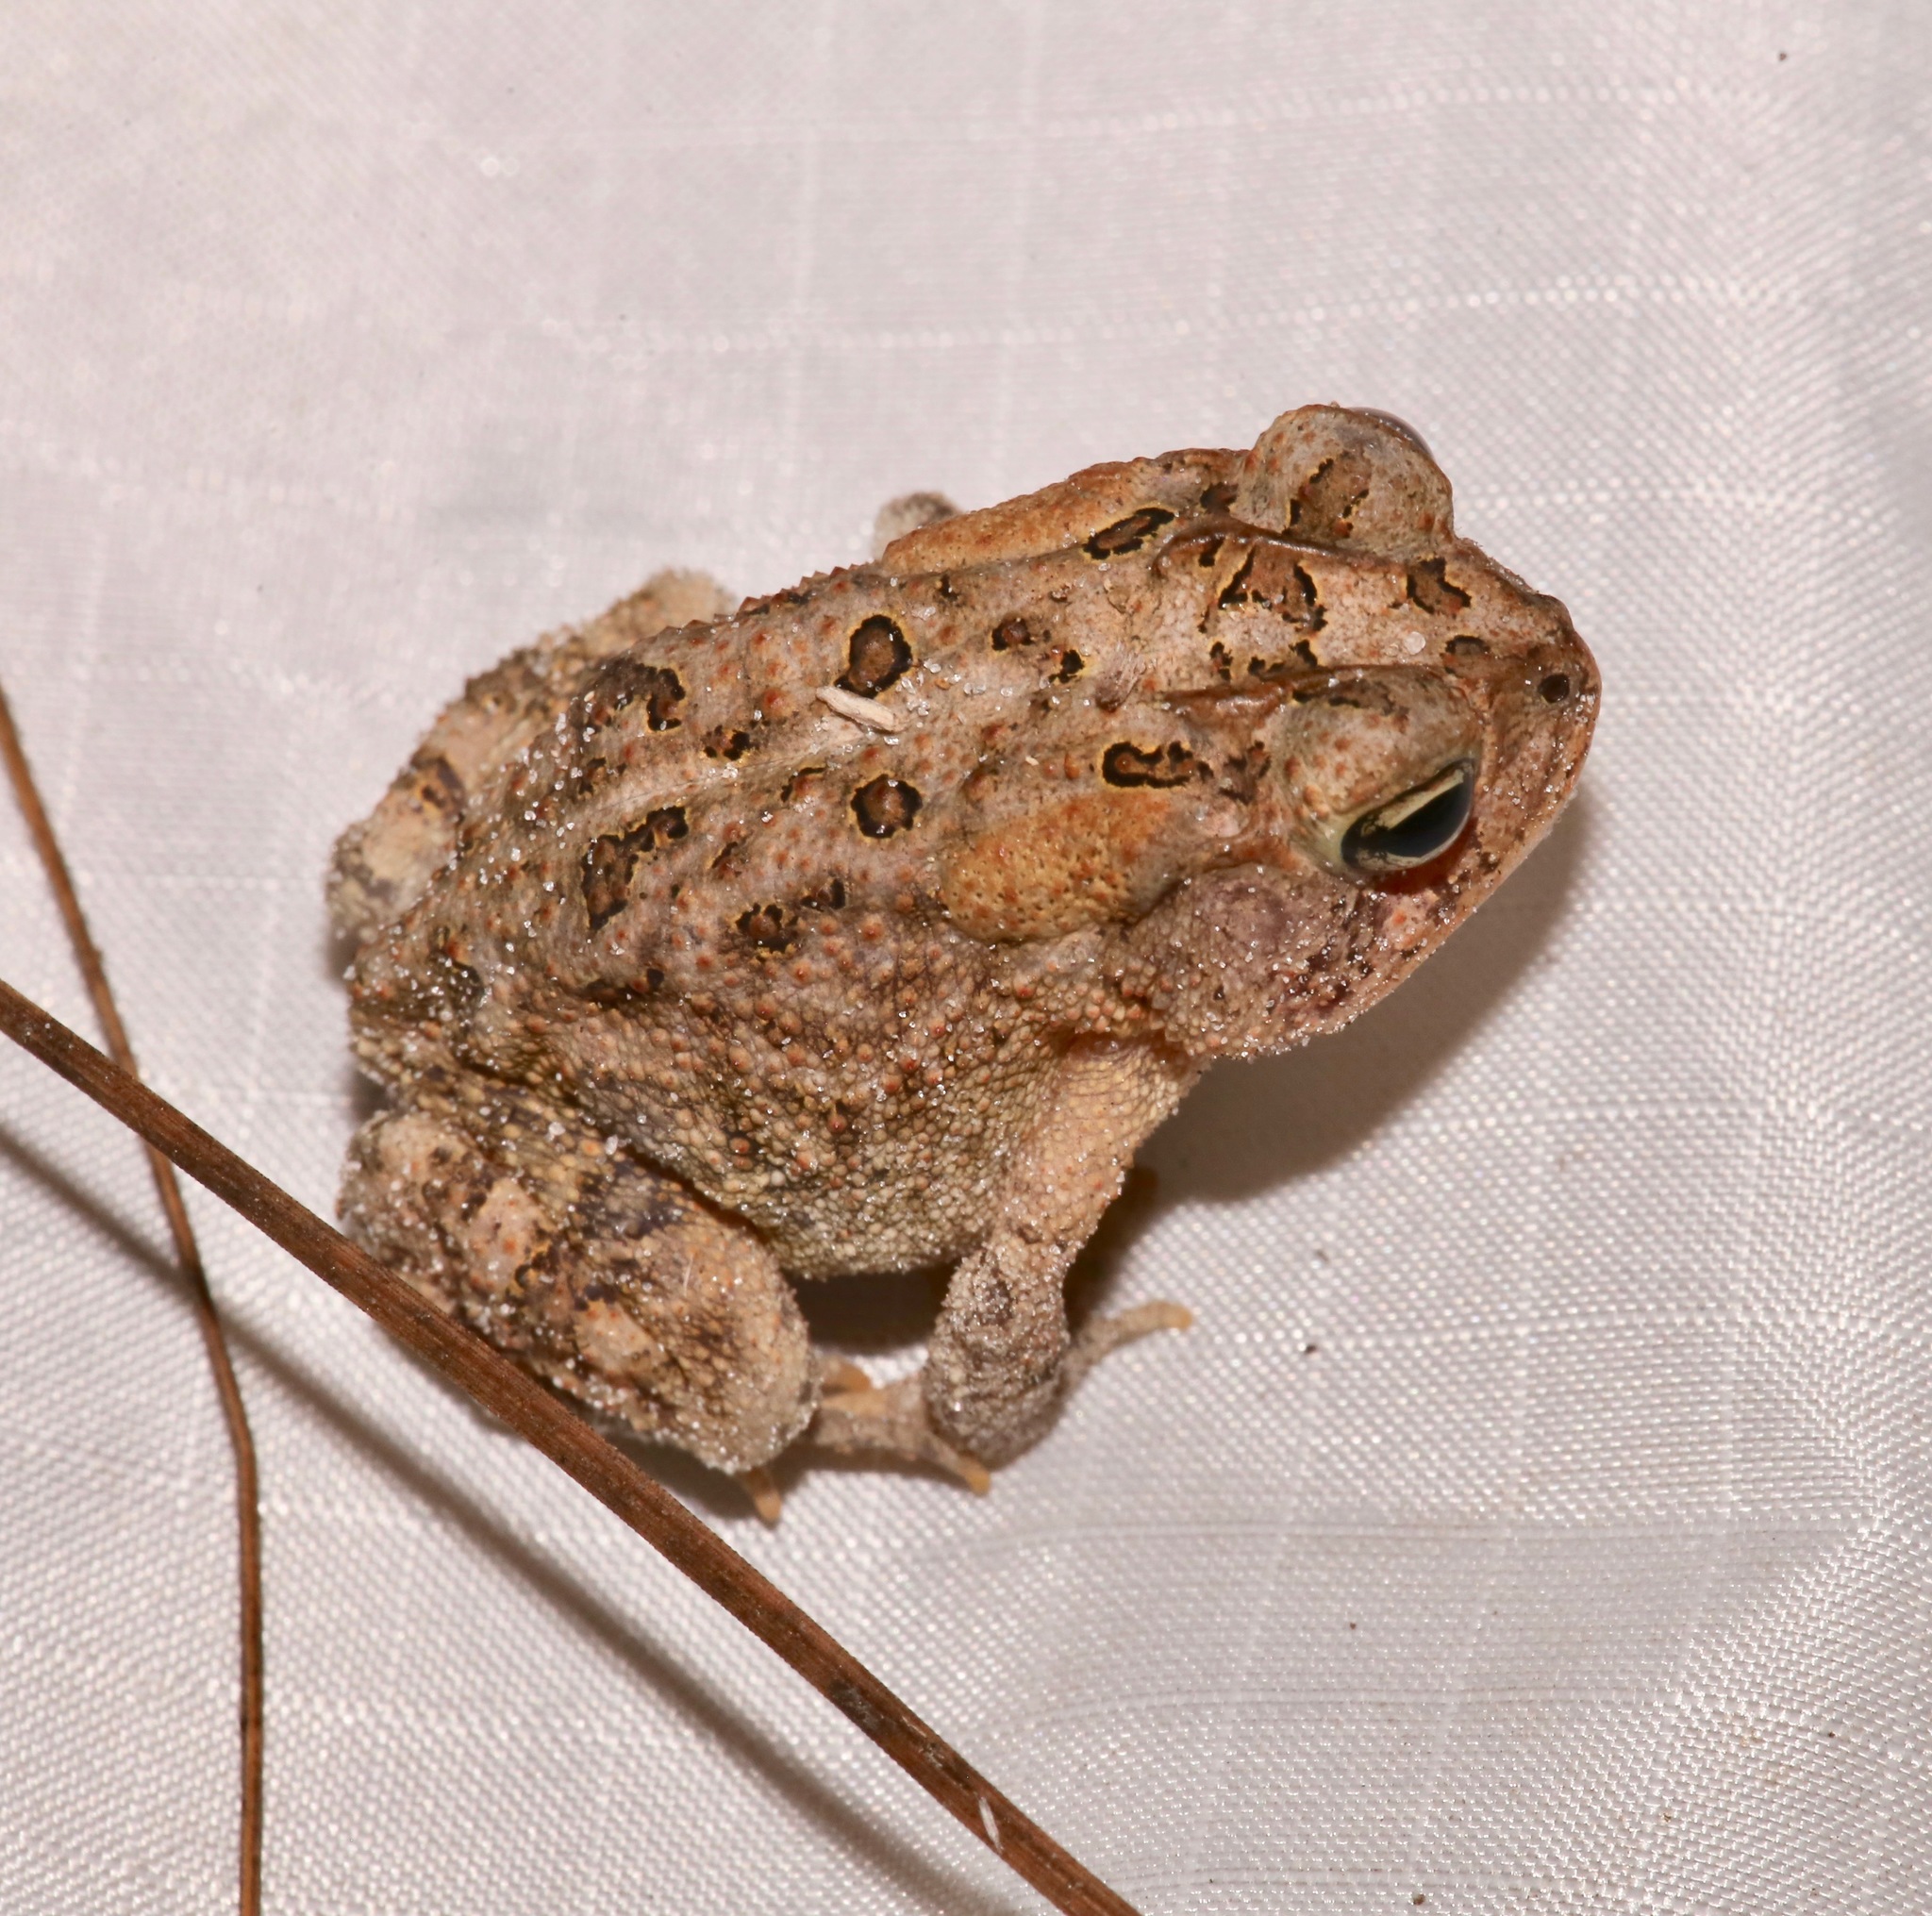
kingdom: Animalia
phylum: Chordata
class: Amphibia
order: Anura
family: Bufonidae
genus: Anaxyrus
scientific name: Anaxyrus terrestris
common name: Southern toad
